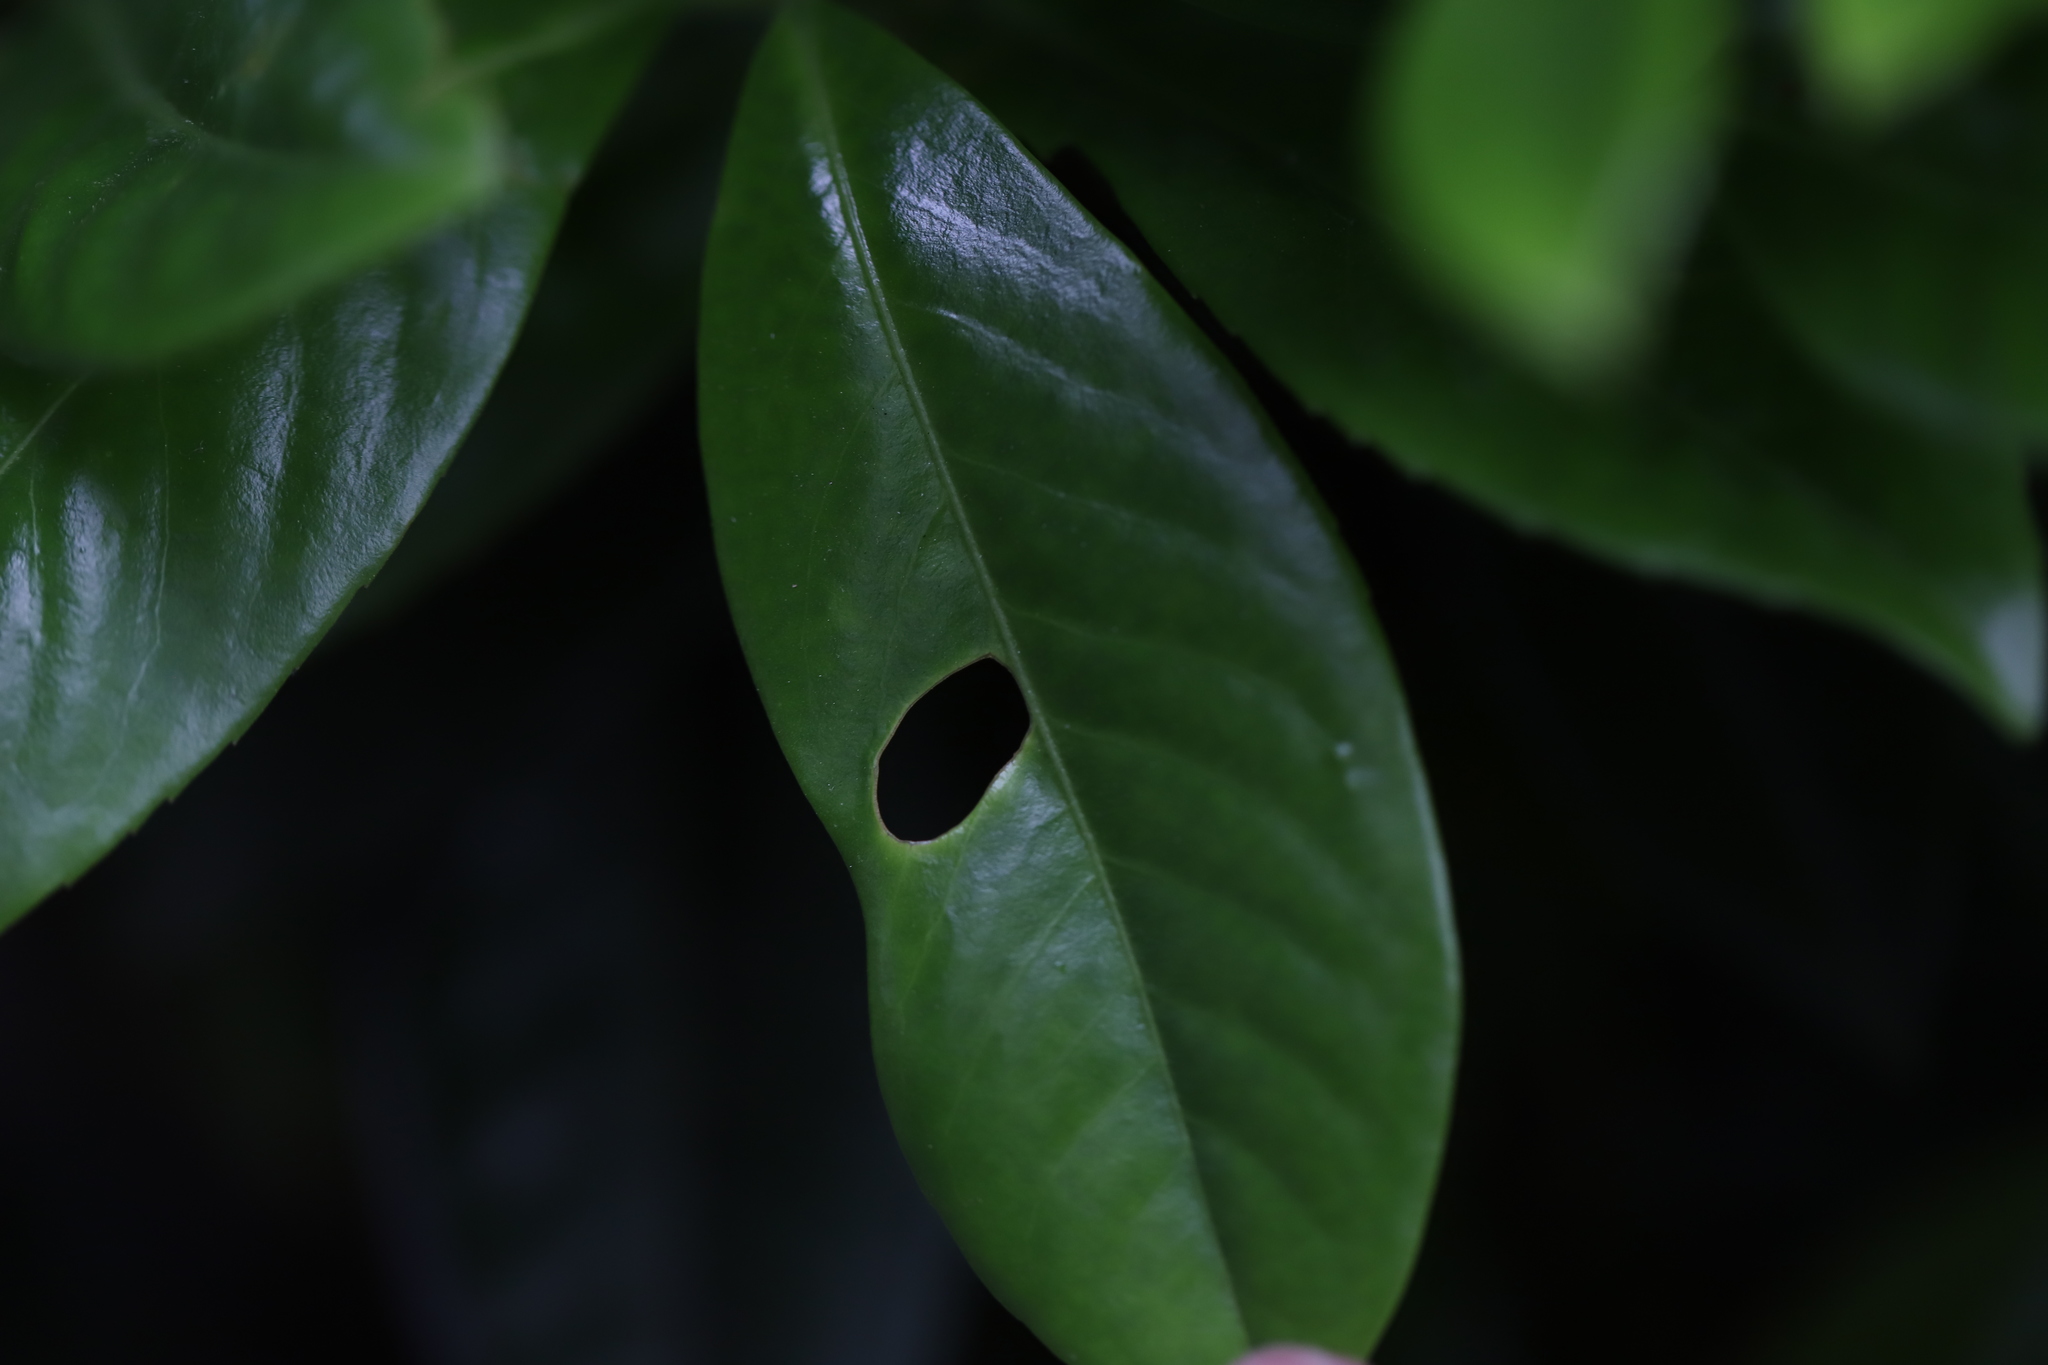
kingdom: Fungi
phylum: Ascomycota
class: Dothideomycetes
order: Mycosphaerellales
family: Mycosphaerellaceae
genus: Stigmina
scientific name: Stigmina carpophila
